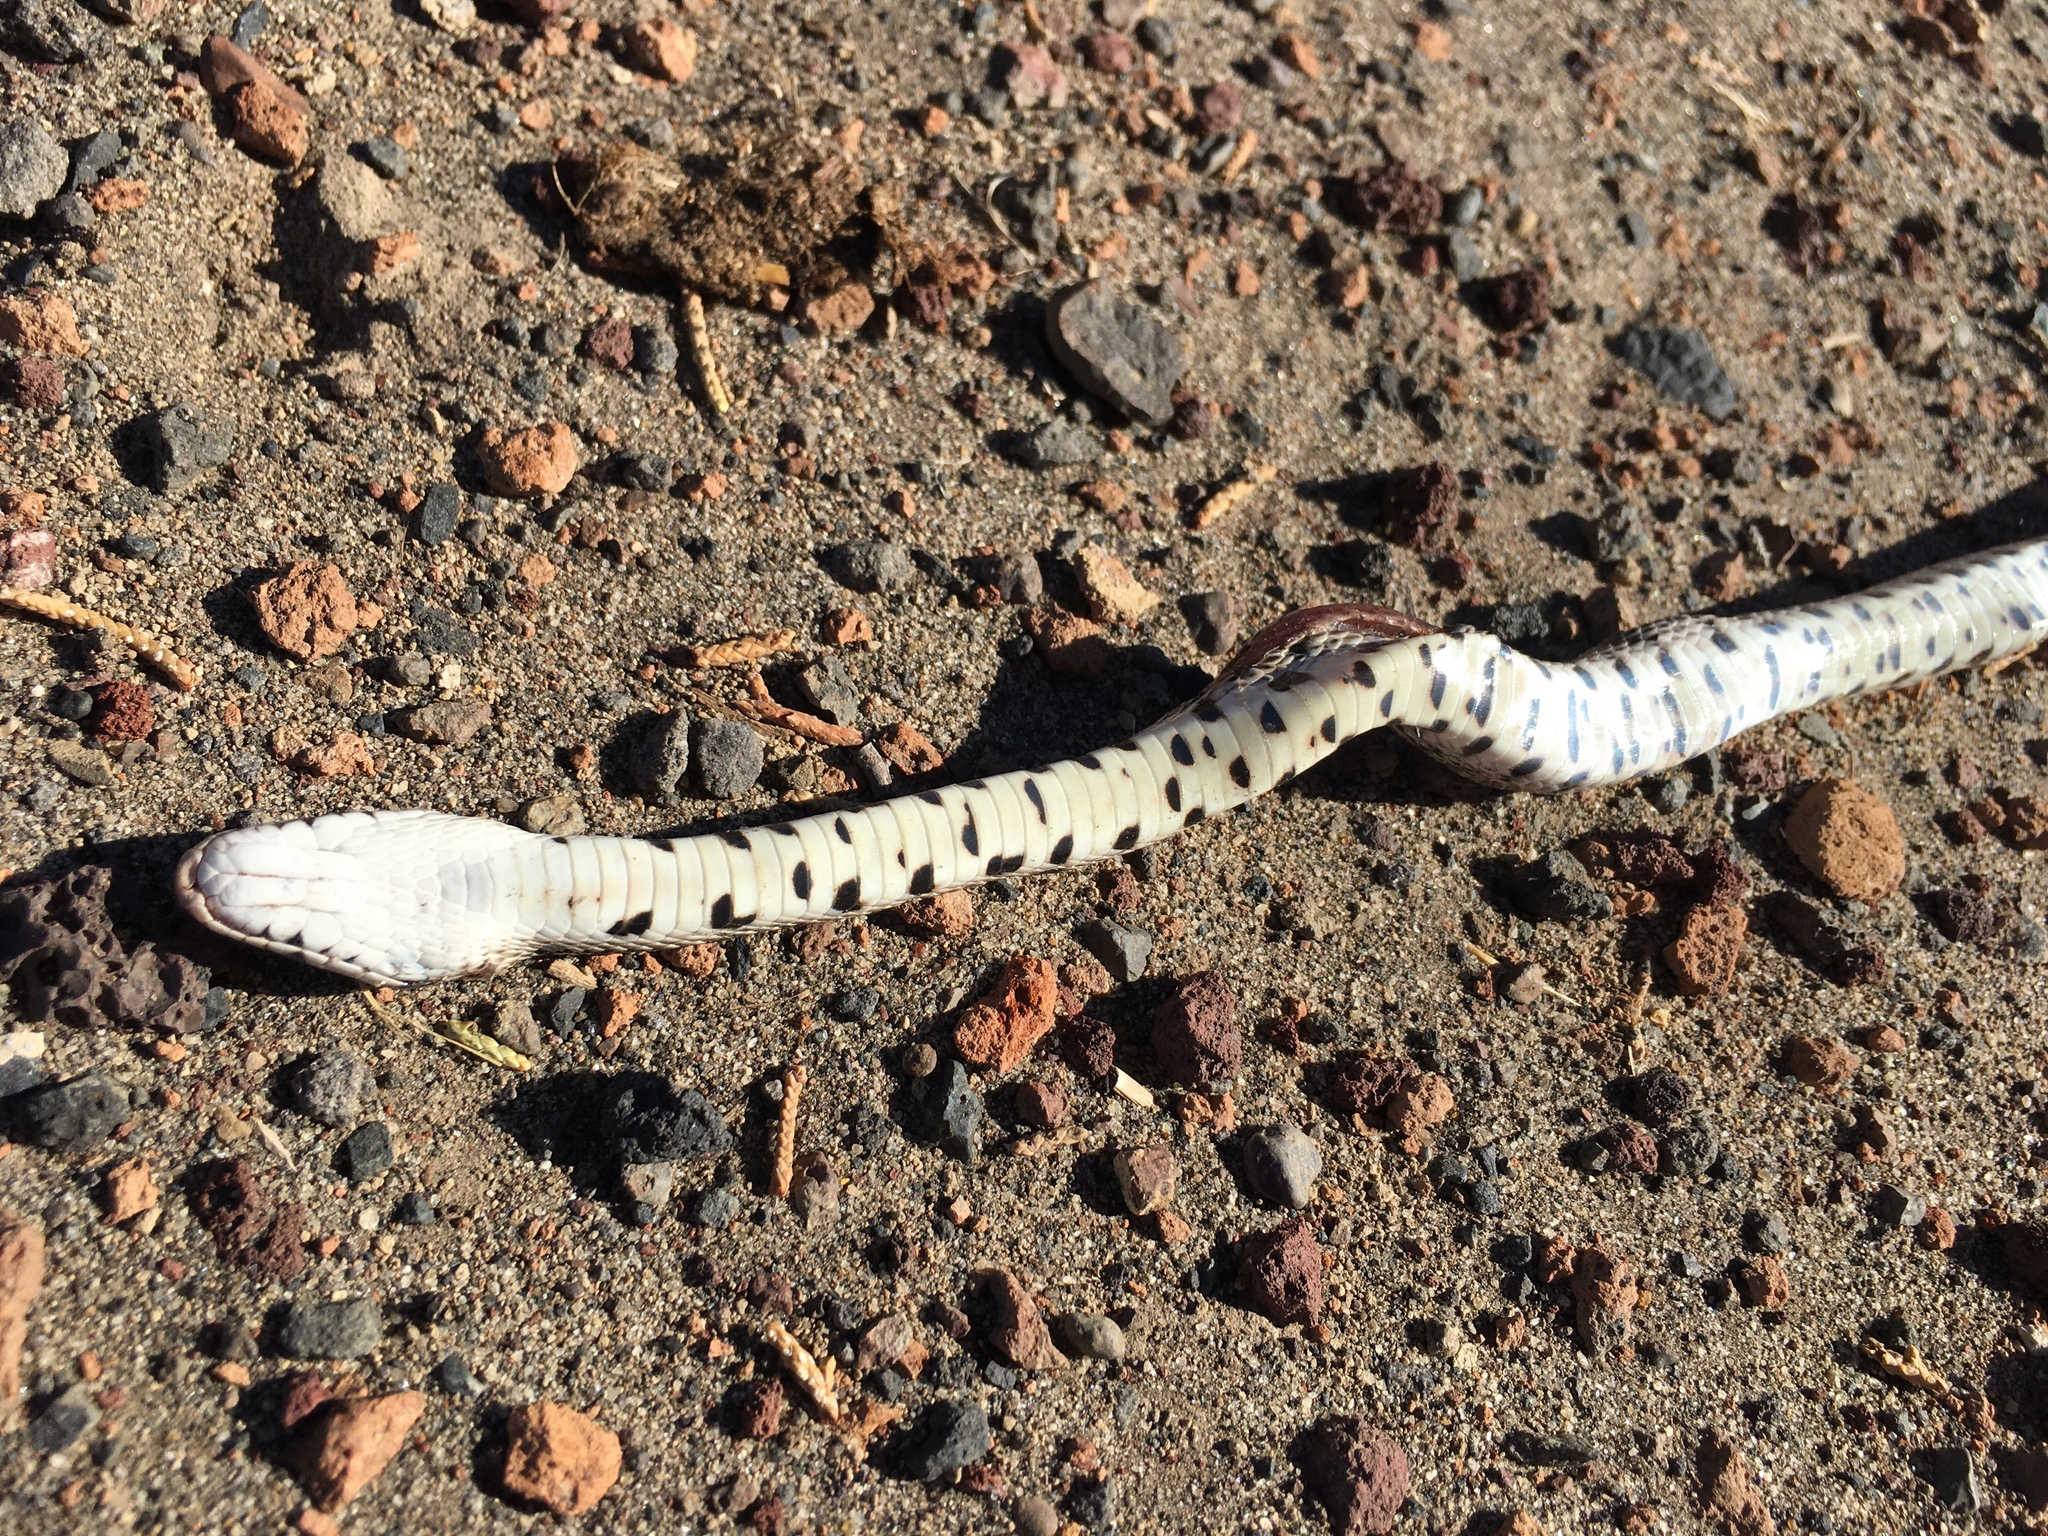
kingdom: Animalia
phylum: Chordata
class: Squamata
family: Colubridae
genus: Pituophis
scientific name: Pituophis catenifer
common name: Gopher snake
